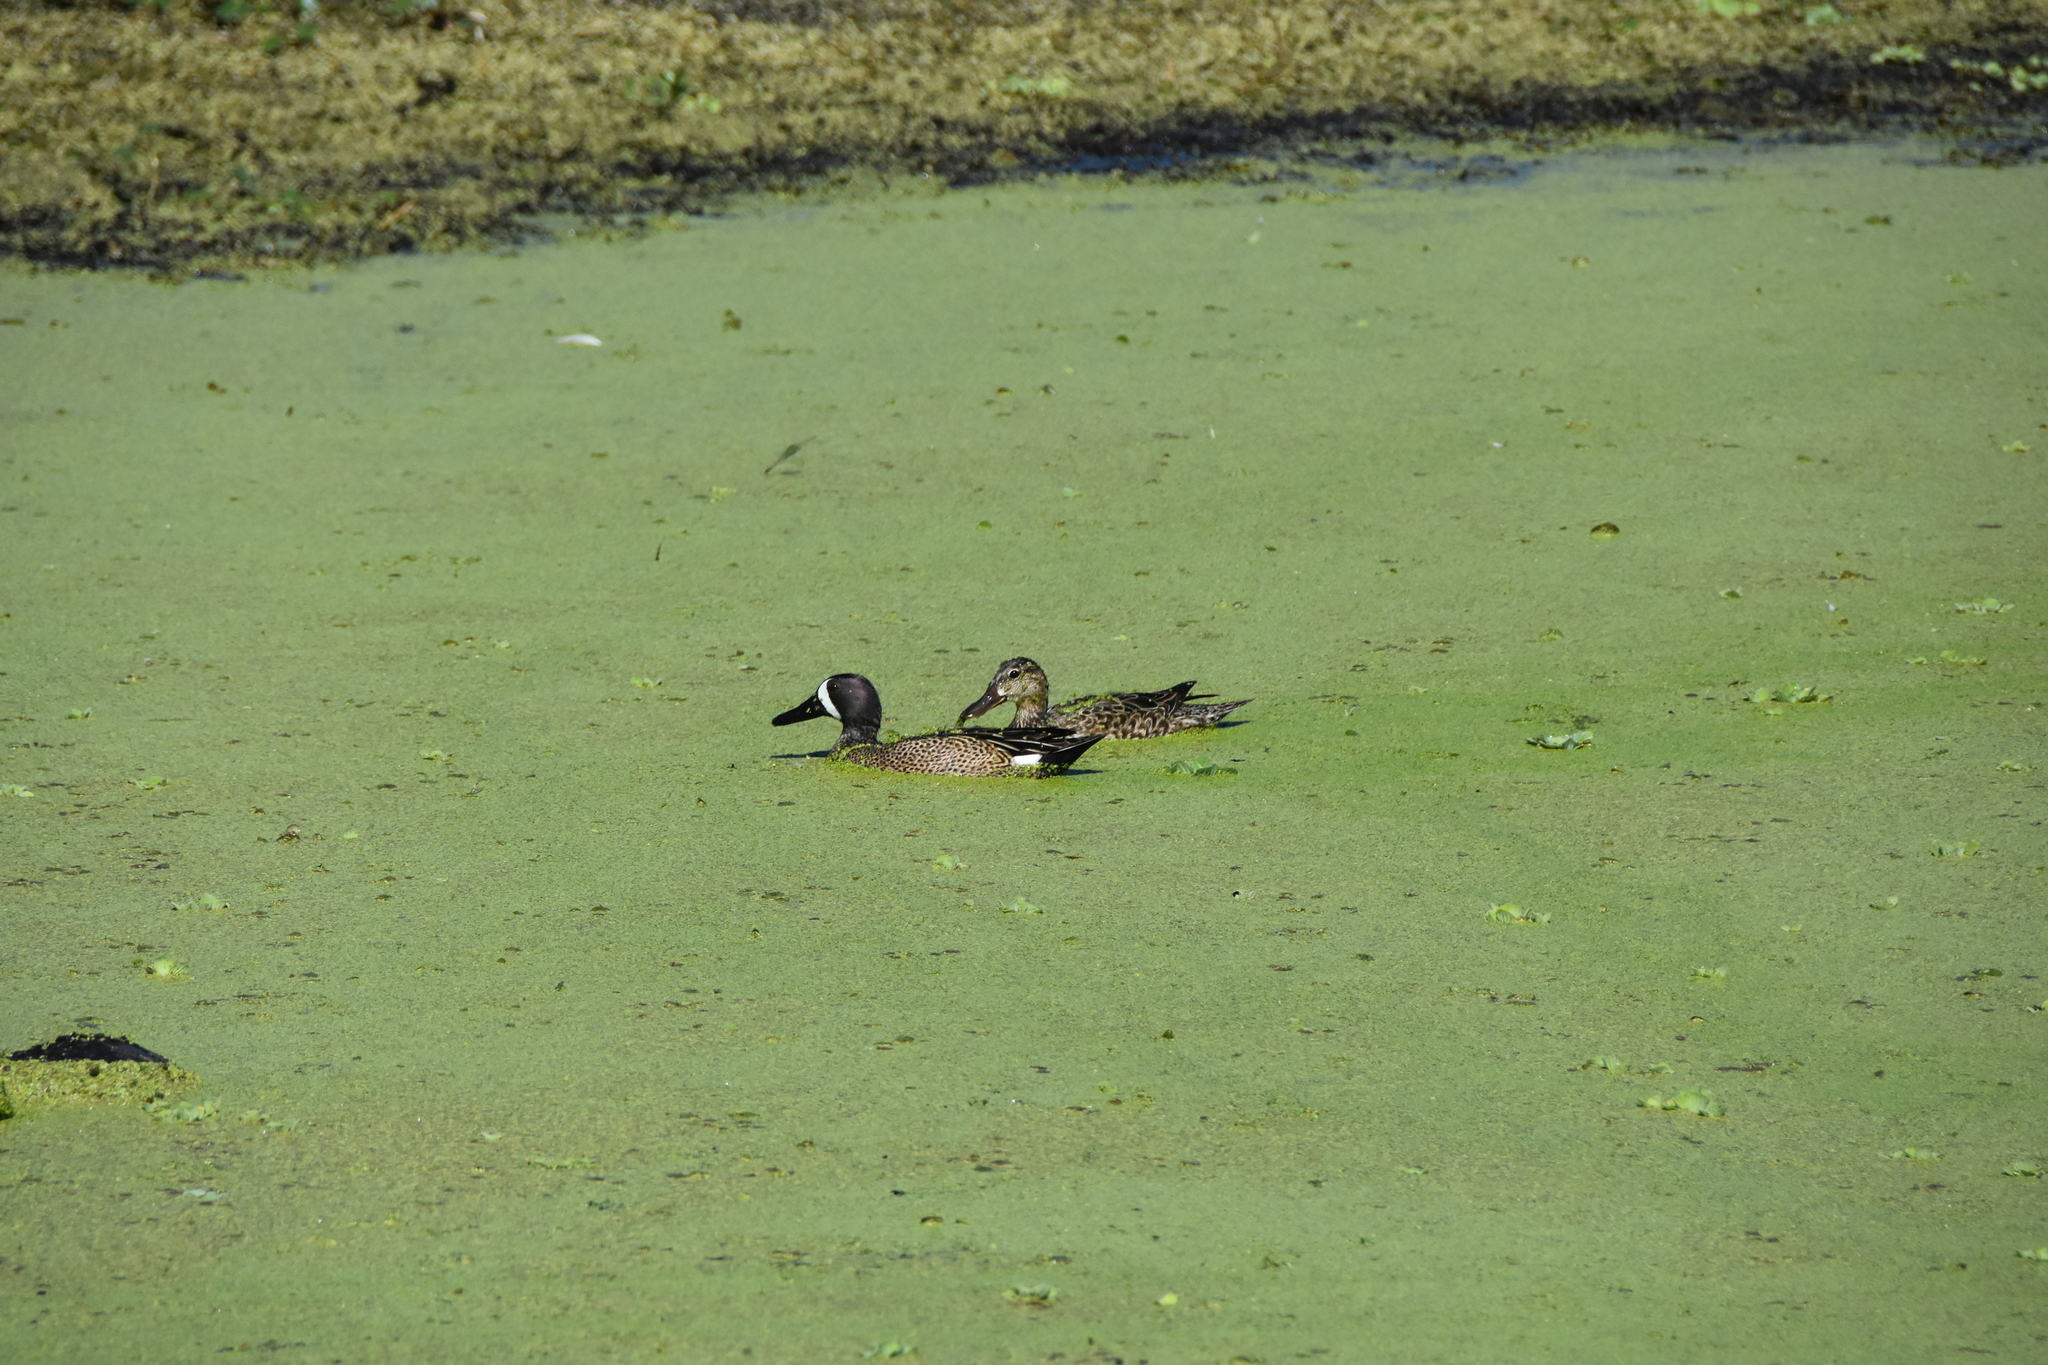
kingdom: Animalia
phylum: Chordata
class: Aves
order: Anseriformes
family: Anatidae
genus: Spatula
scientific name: Spatula discors
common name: Blue-winged teal
